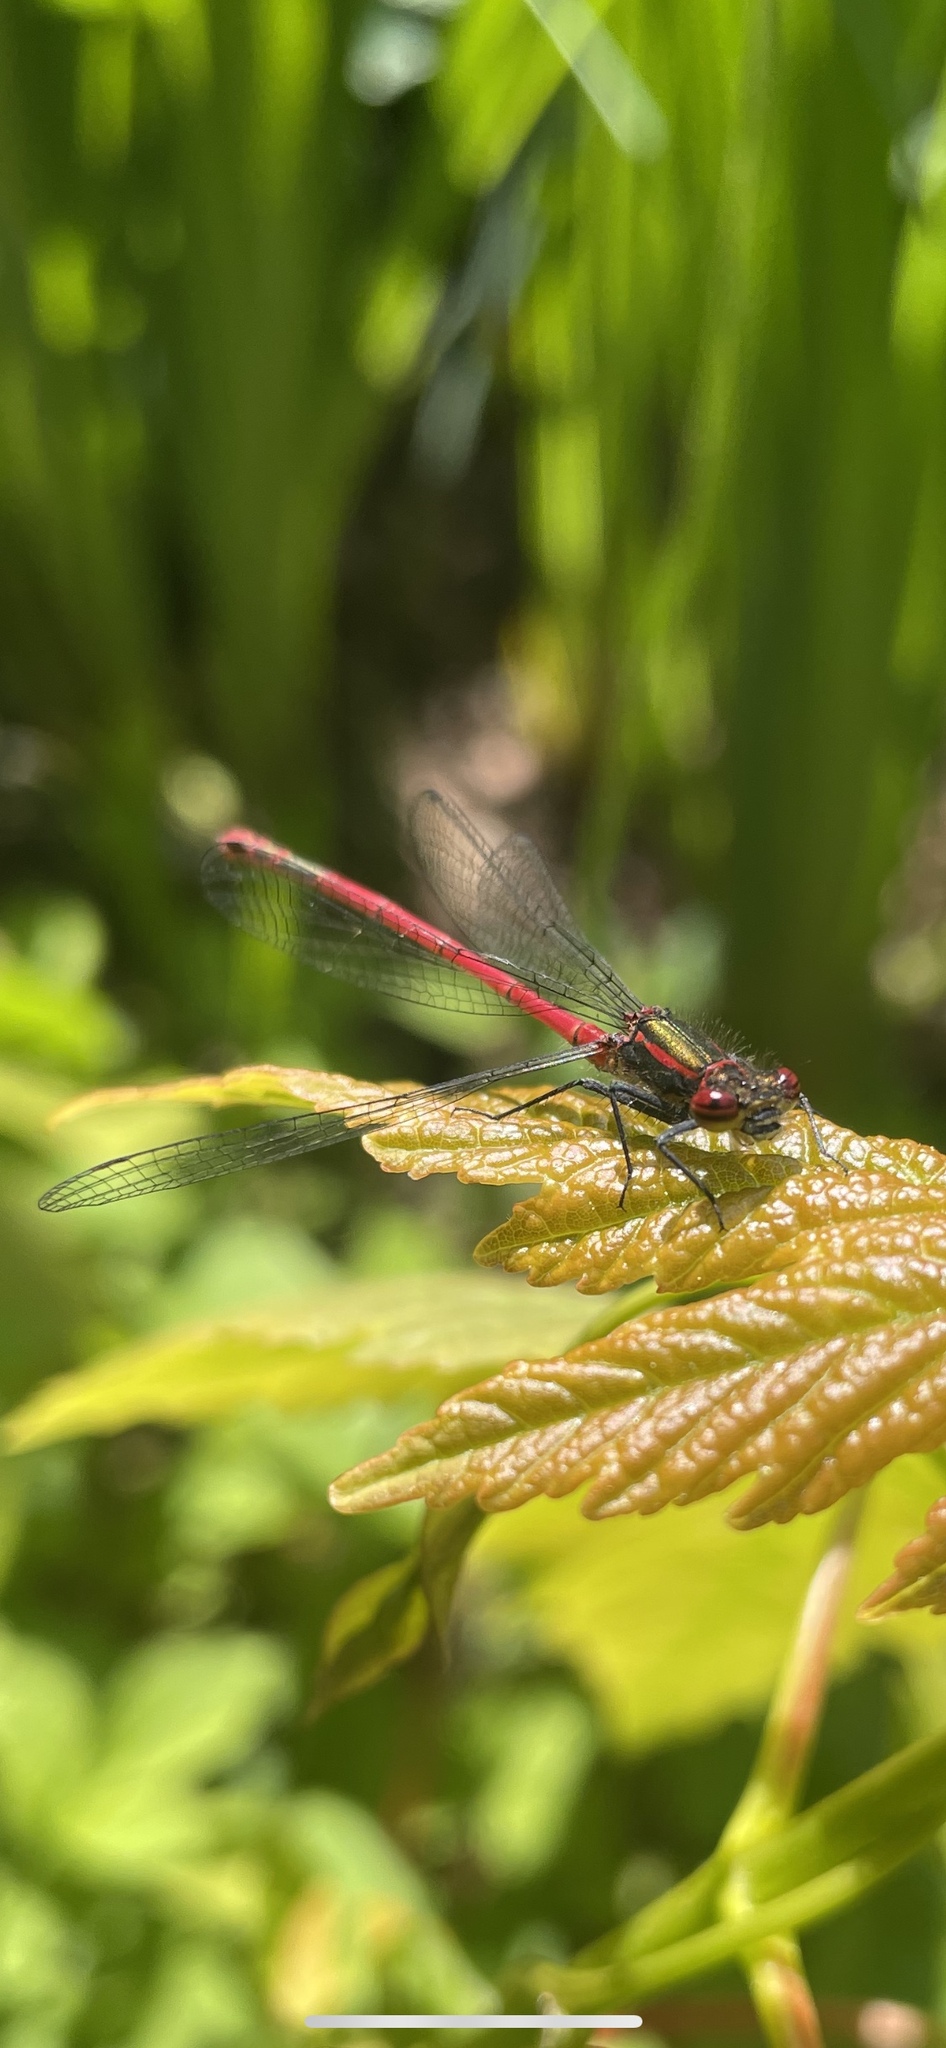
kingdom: Animalia
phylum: Arthropoda
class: Insecta
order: Odonata
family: Coenagrionidae
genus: Pyrrhosoma
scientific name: Pyrrhosoma nymphula
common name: Large red damsel
